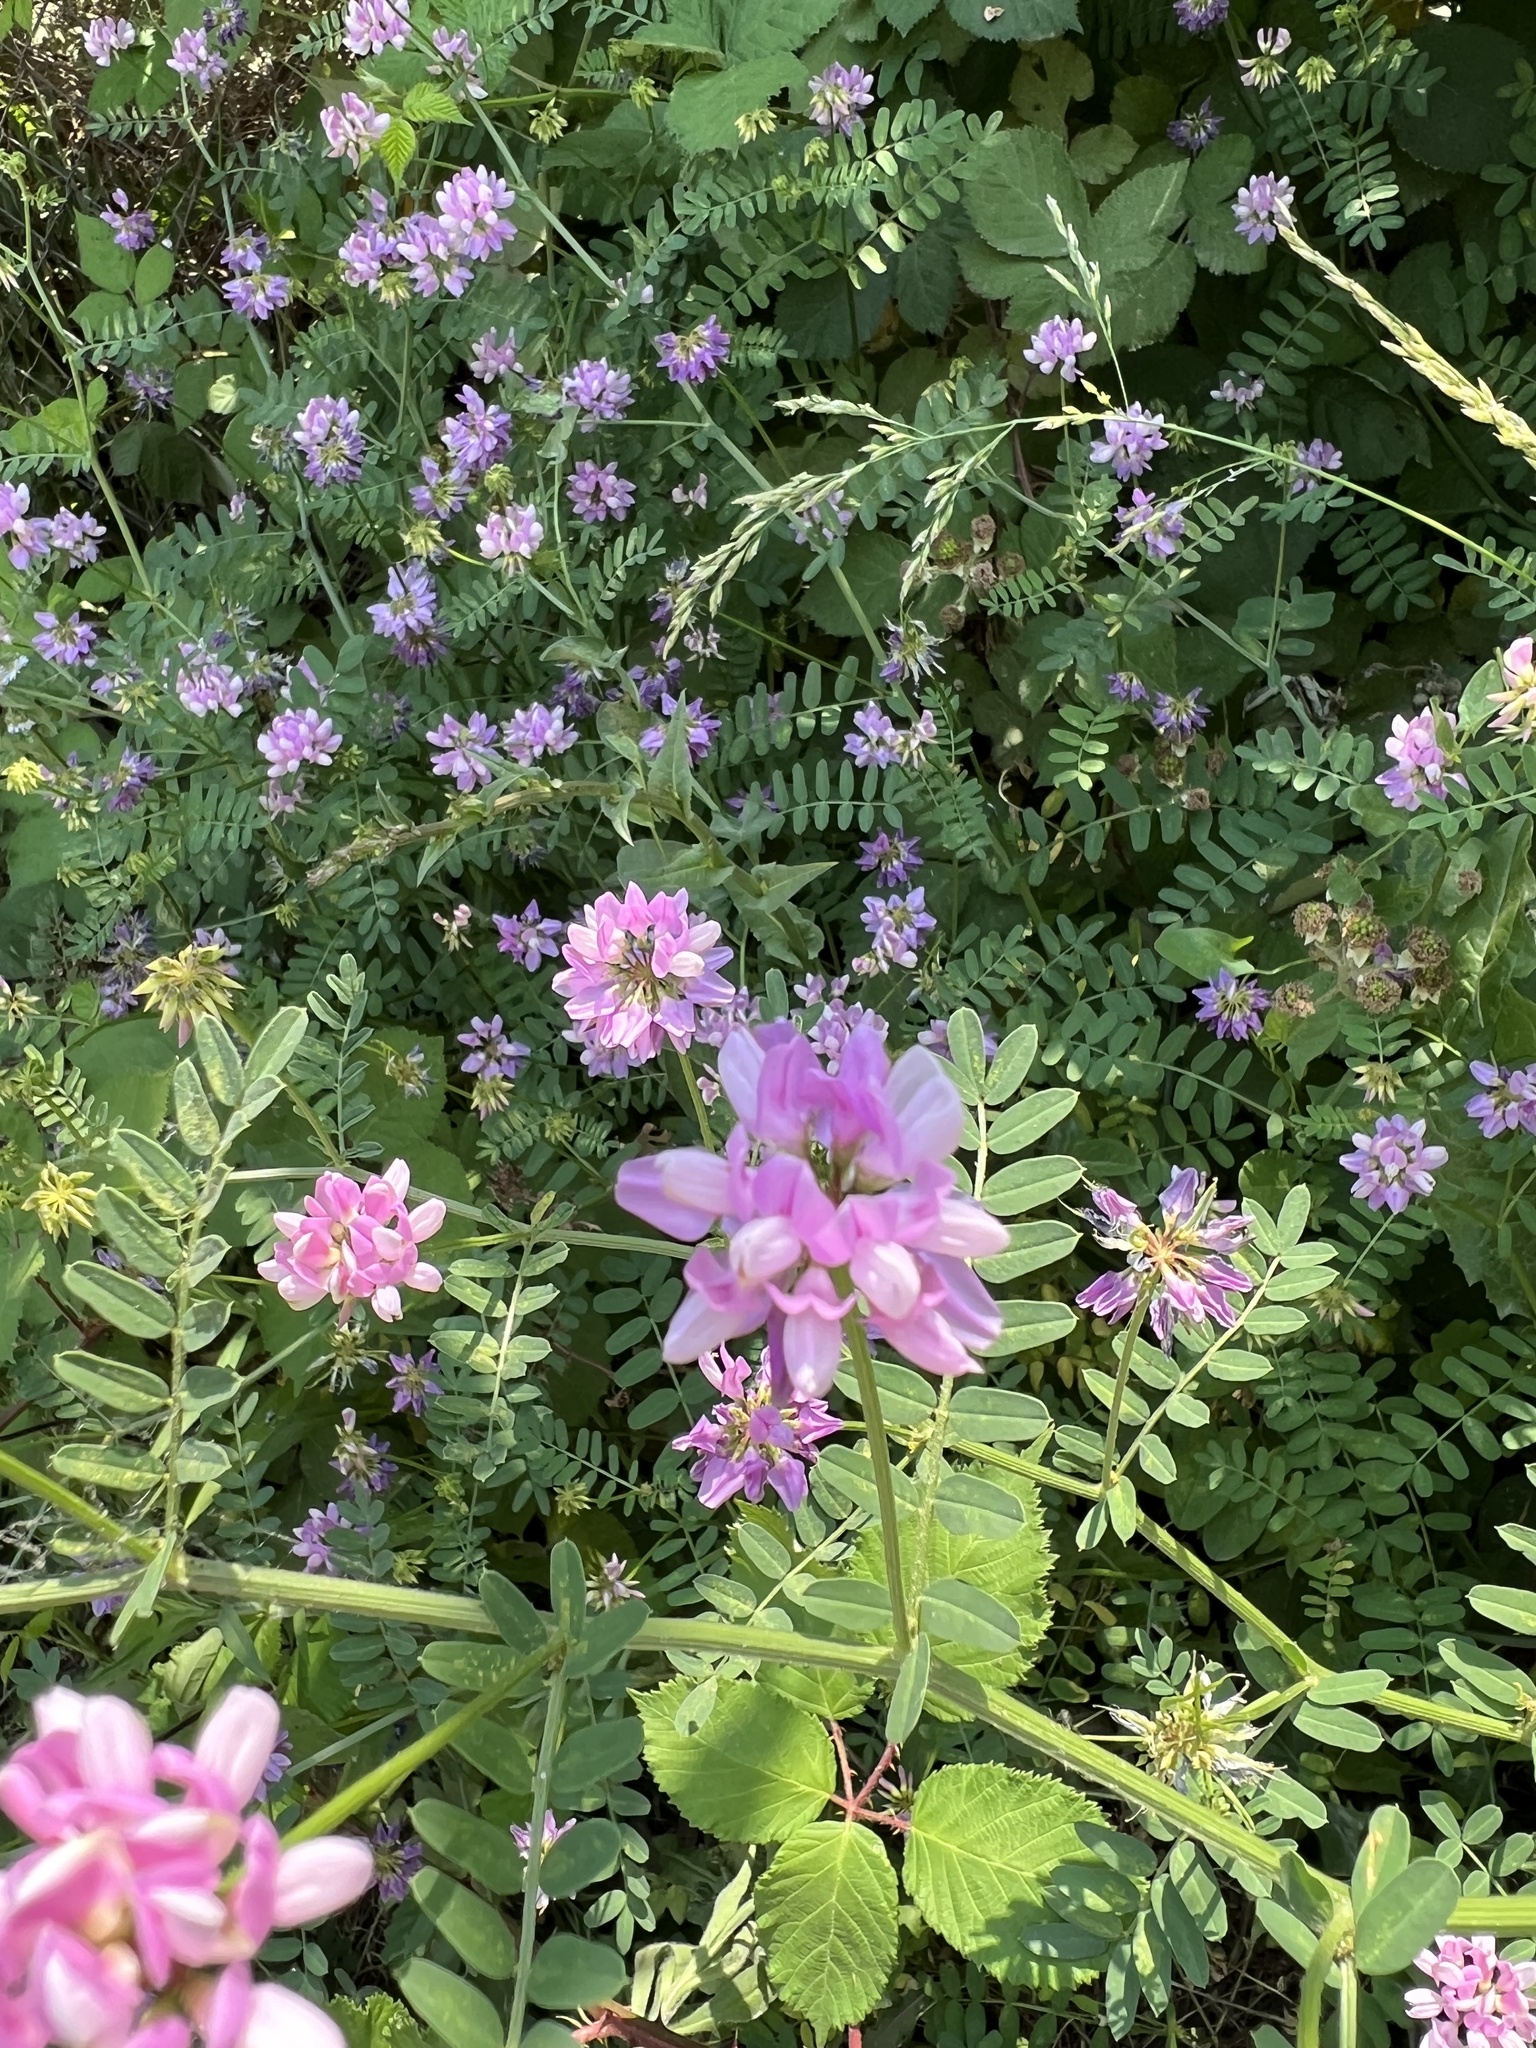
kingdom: Plantae
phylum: Tracheophyta
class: Magnoliopsida
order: Fabales
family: Fabaceae
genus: Coronilla
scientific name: Coronilla varia
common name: Crownvetch
